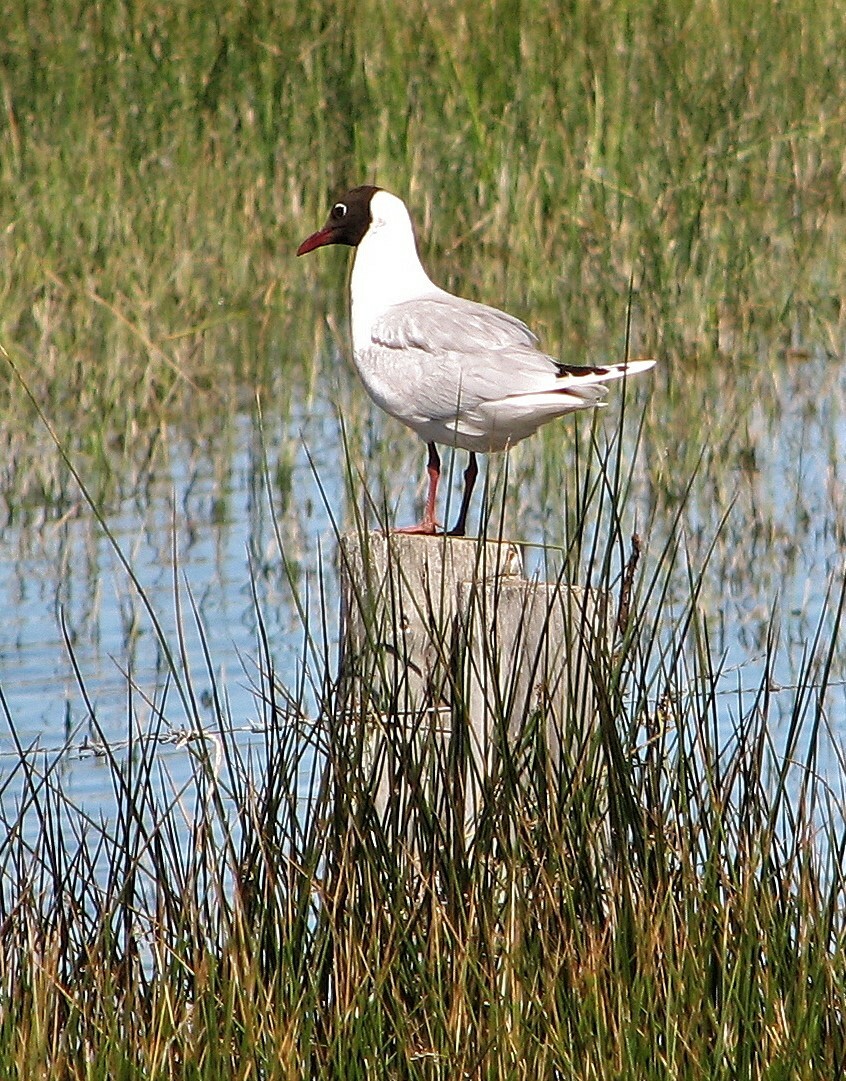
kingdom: Animalia
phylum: Chordata
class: Aves
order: Charadriiformes
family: Laridae
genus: Chroicocephalus
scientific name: Chroicocephalus maculipennis
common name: Brown-hooded gull
